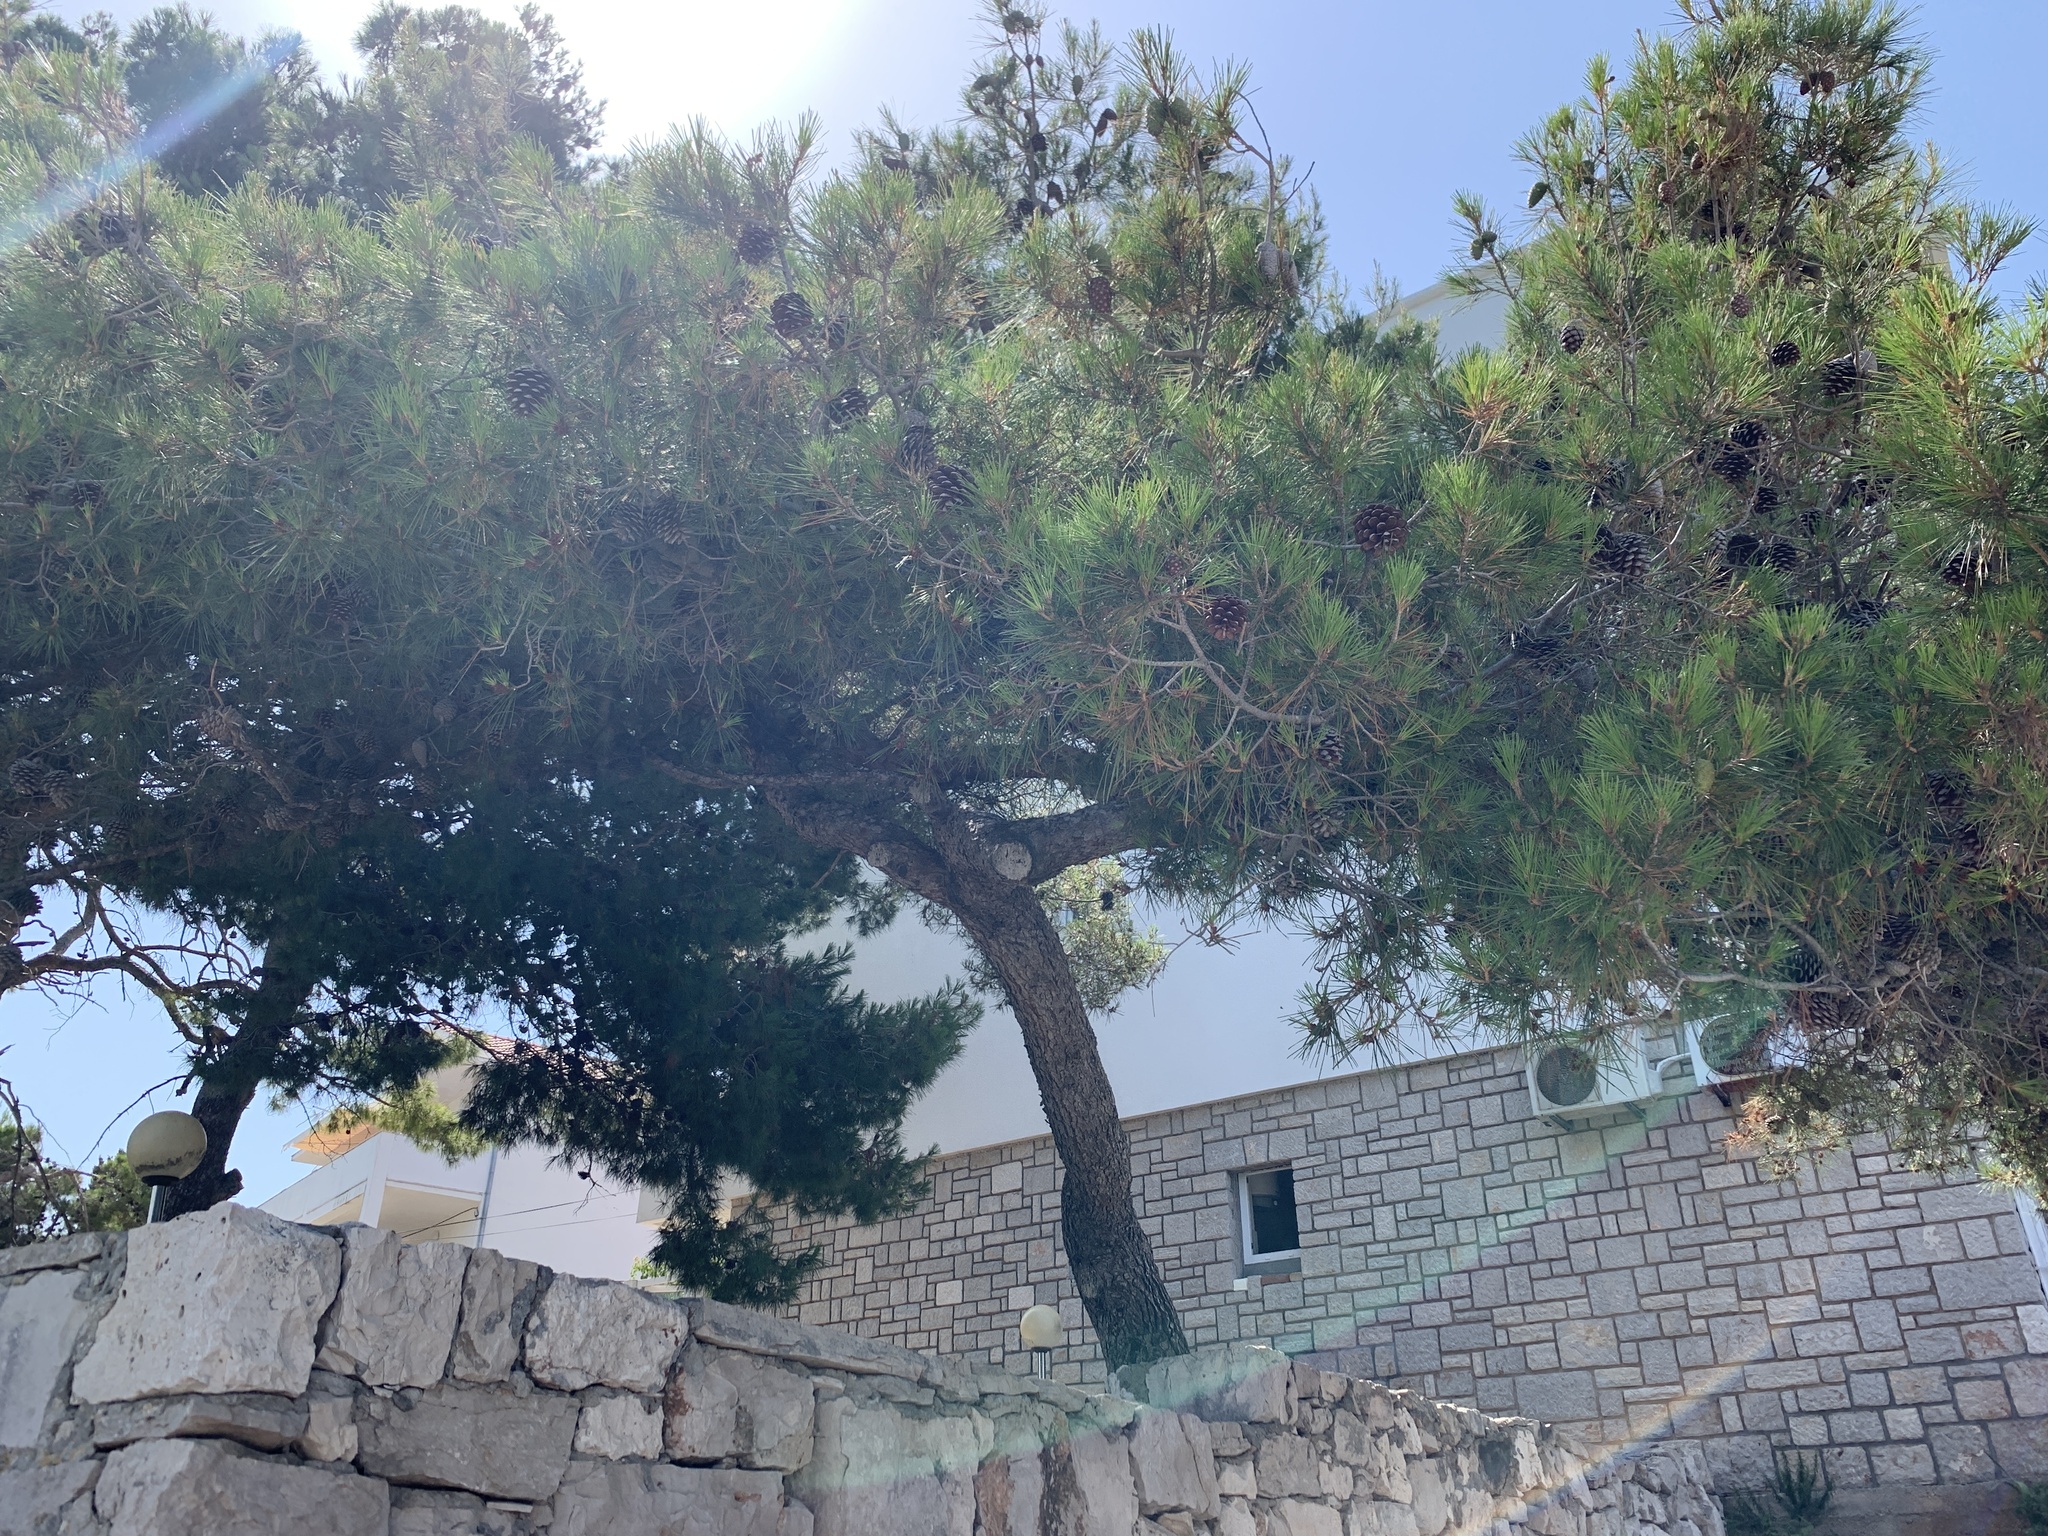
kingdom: Plantae
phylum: Tracheophyta
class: Pinopsida
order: Pinales
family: Pinaceae
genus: Pinus
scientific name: Pinus halepensis
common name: Aleppo pine
